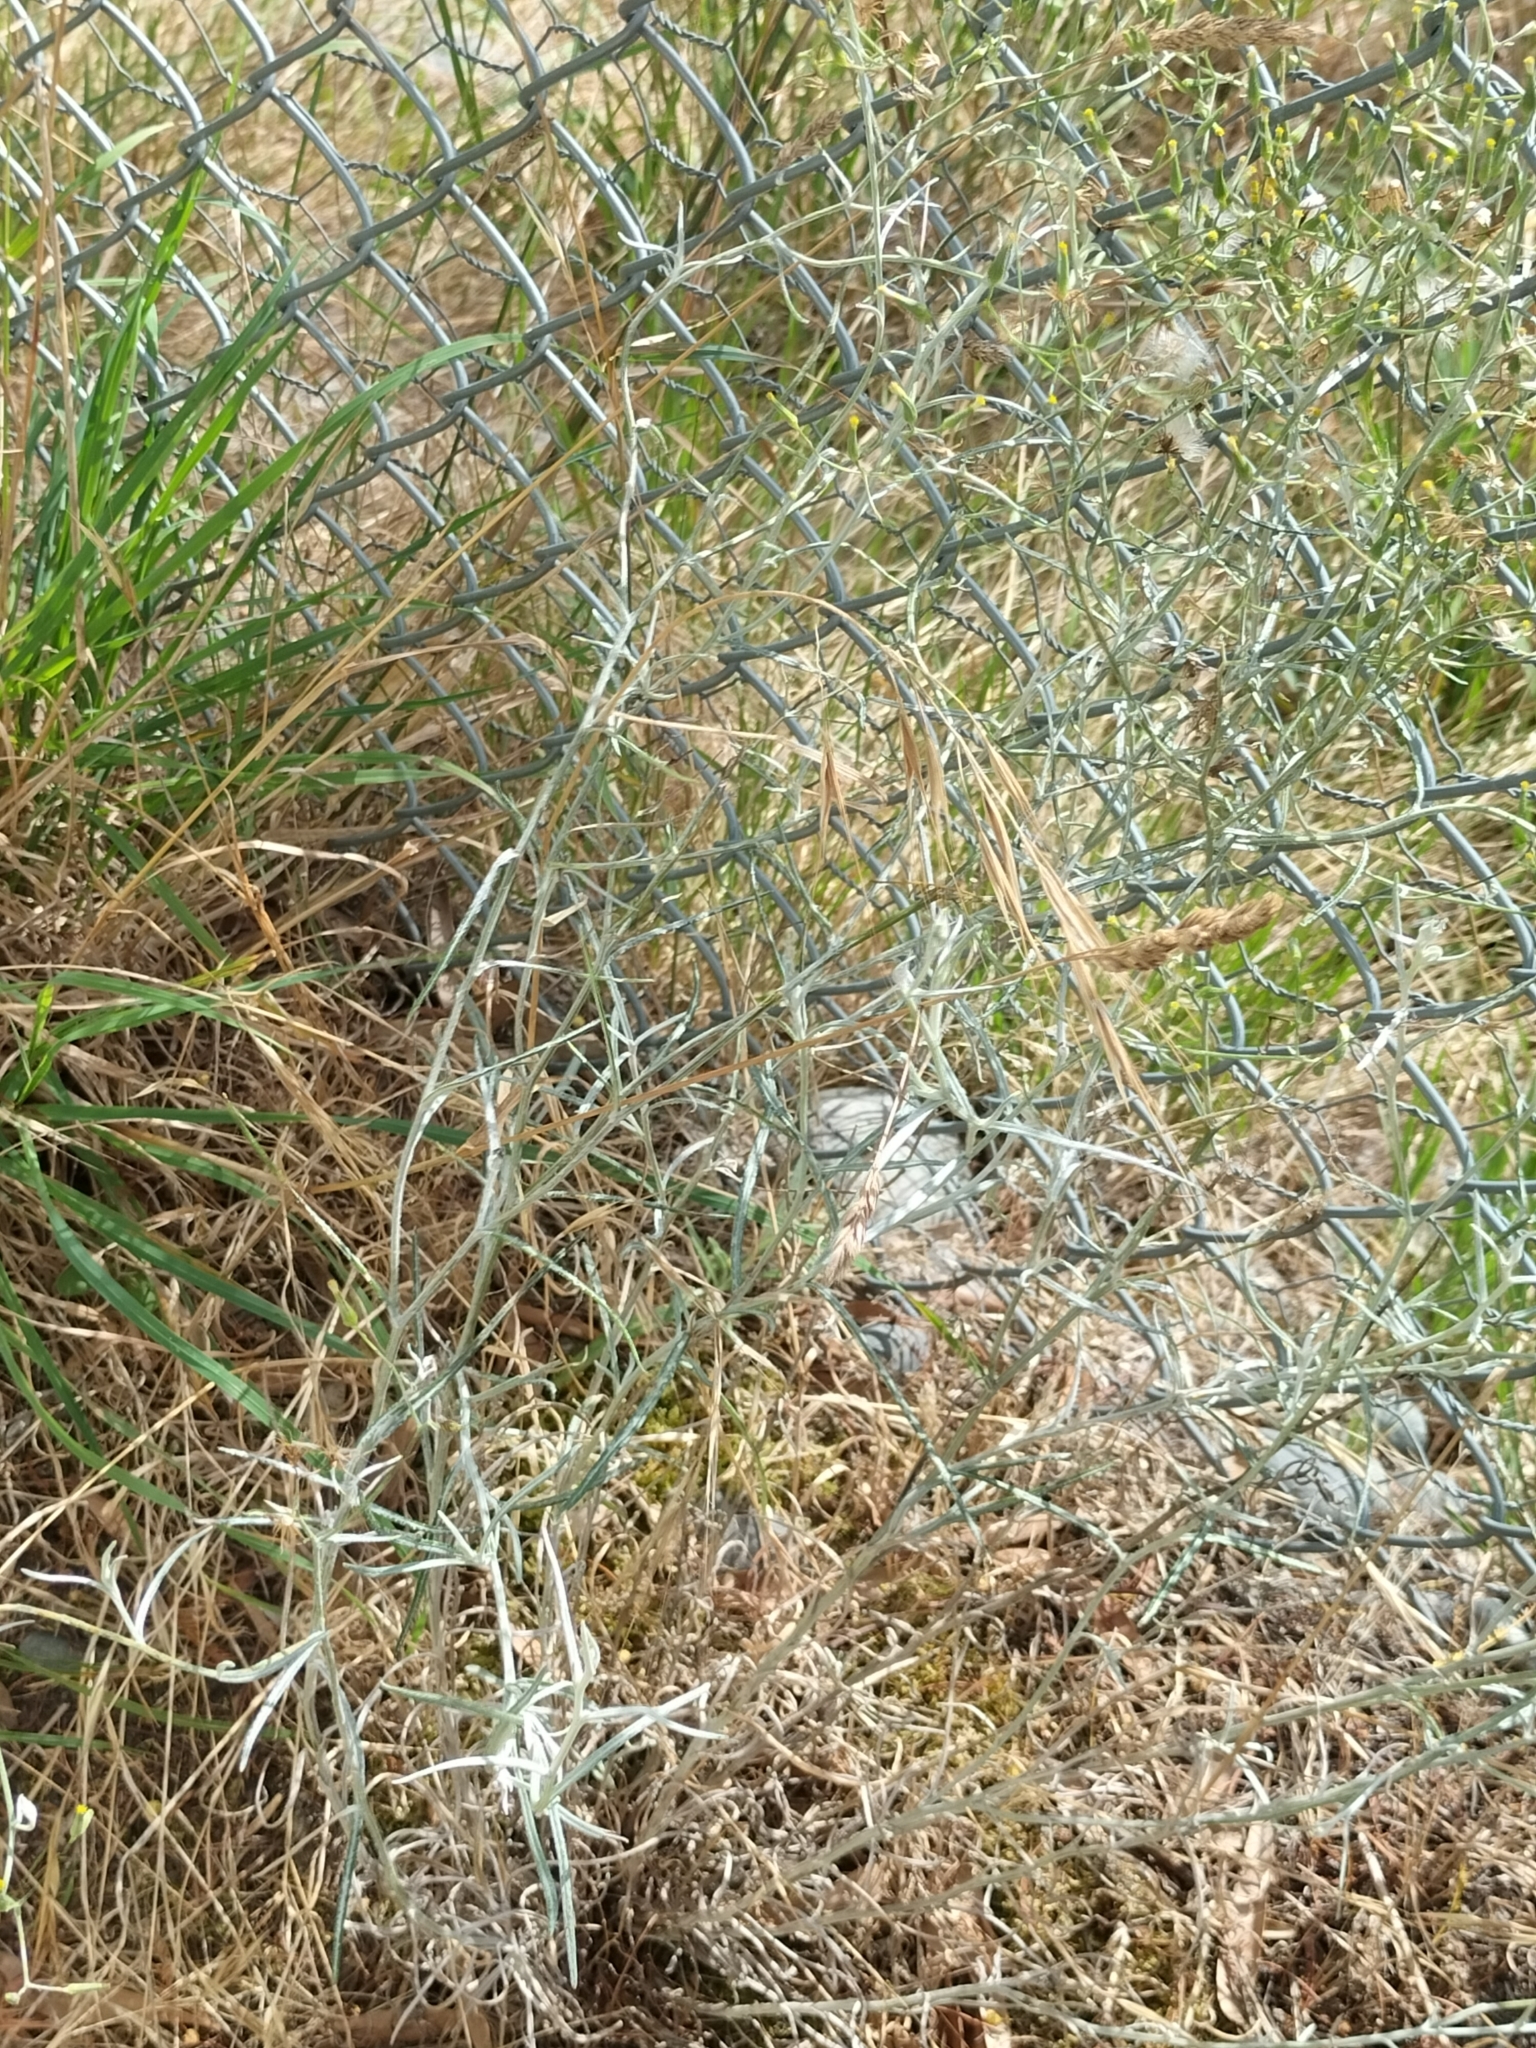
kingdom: Plantae
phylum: Tracheophyta
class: Magnoliopsida
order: Asterales
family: Asteraceae
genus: Senecio
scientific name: Senecio quadridentatus
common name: Cotton fireweed
